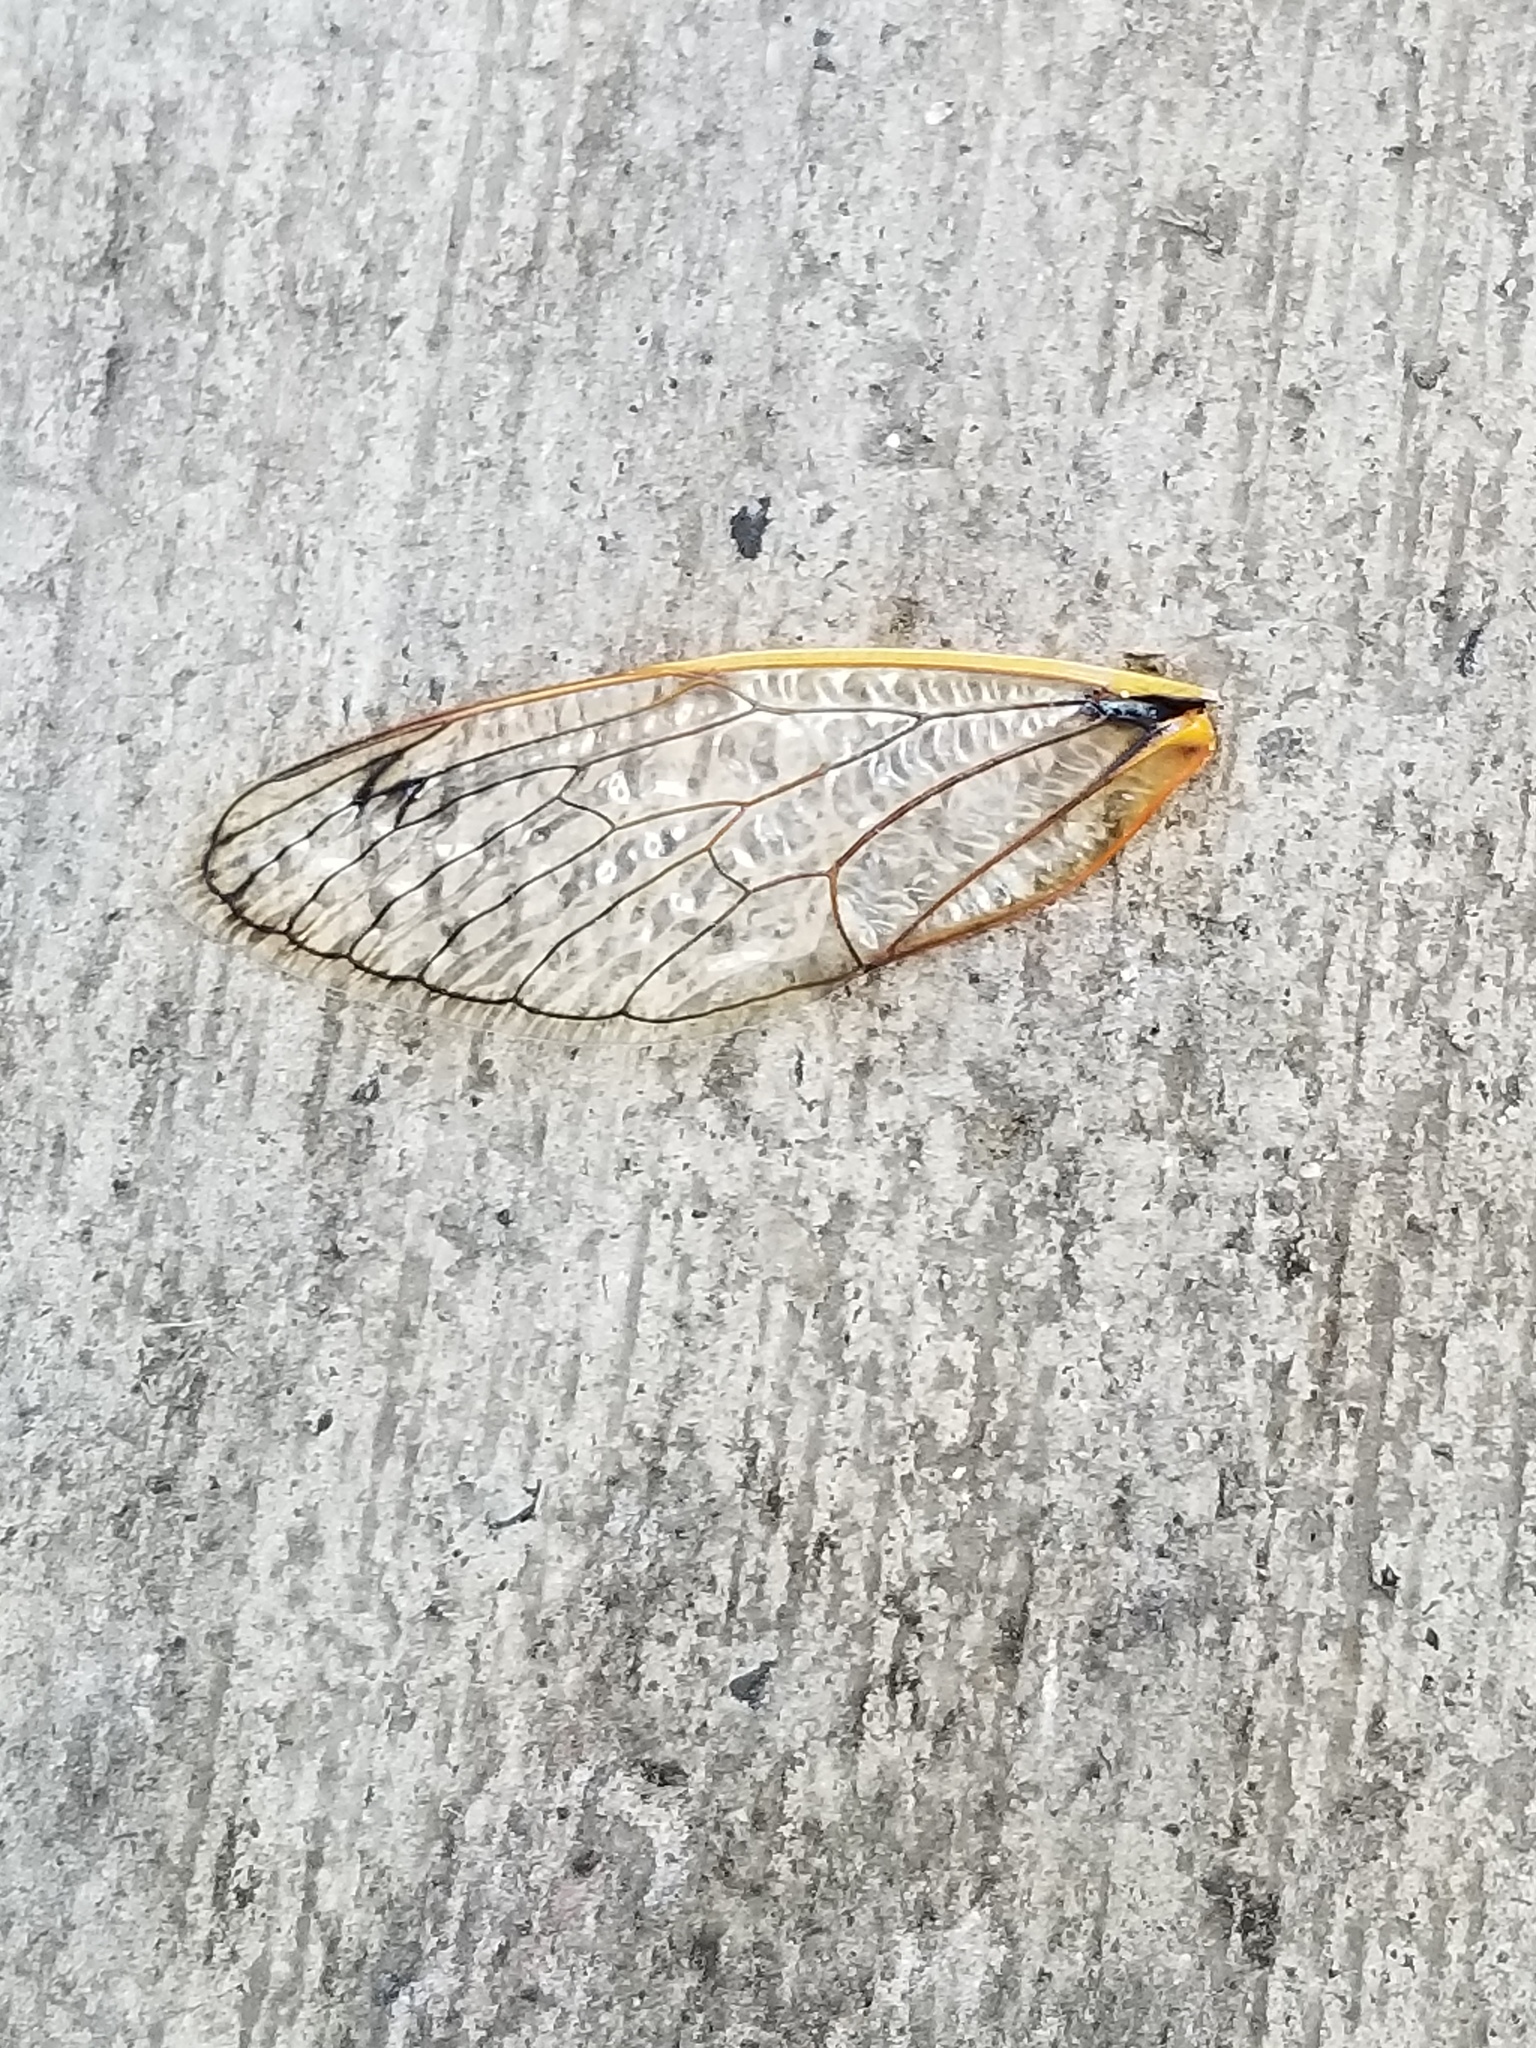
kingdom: Animalia
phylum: Arthropoda
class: Insecta
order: Hemiptera
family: Cicadidae
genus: Magicicada
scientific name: Magicicada
